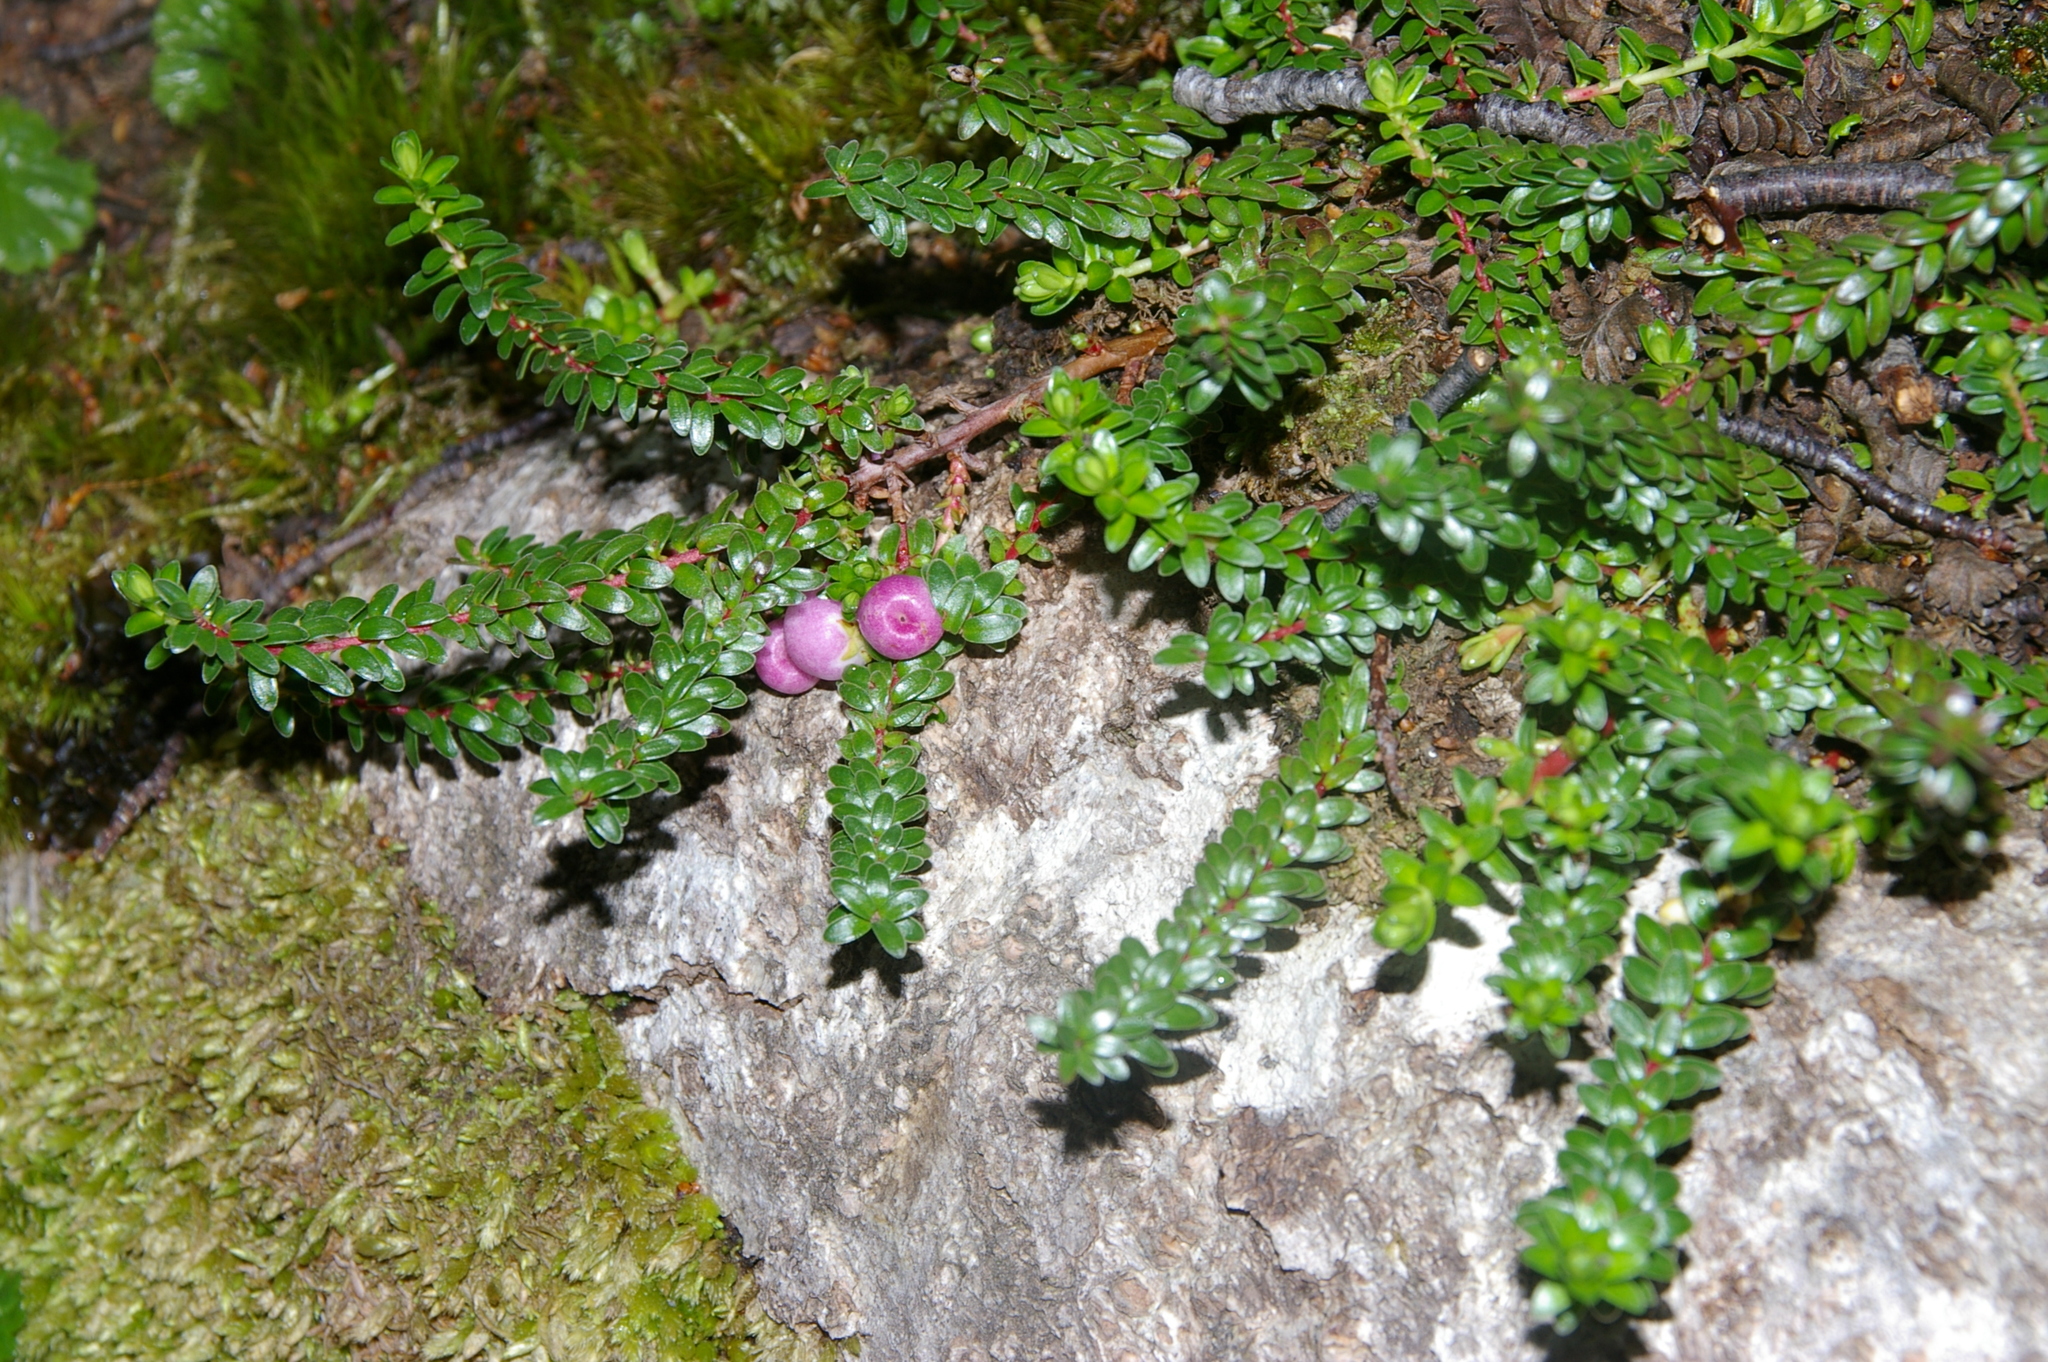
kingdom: Plantae
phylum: Tracheophyta
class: Magnoliopsida
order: Ericales
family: Ericaceae
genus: Gaultheria
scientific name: Gaultheria pumila
